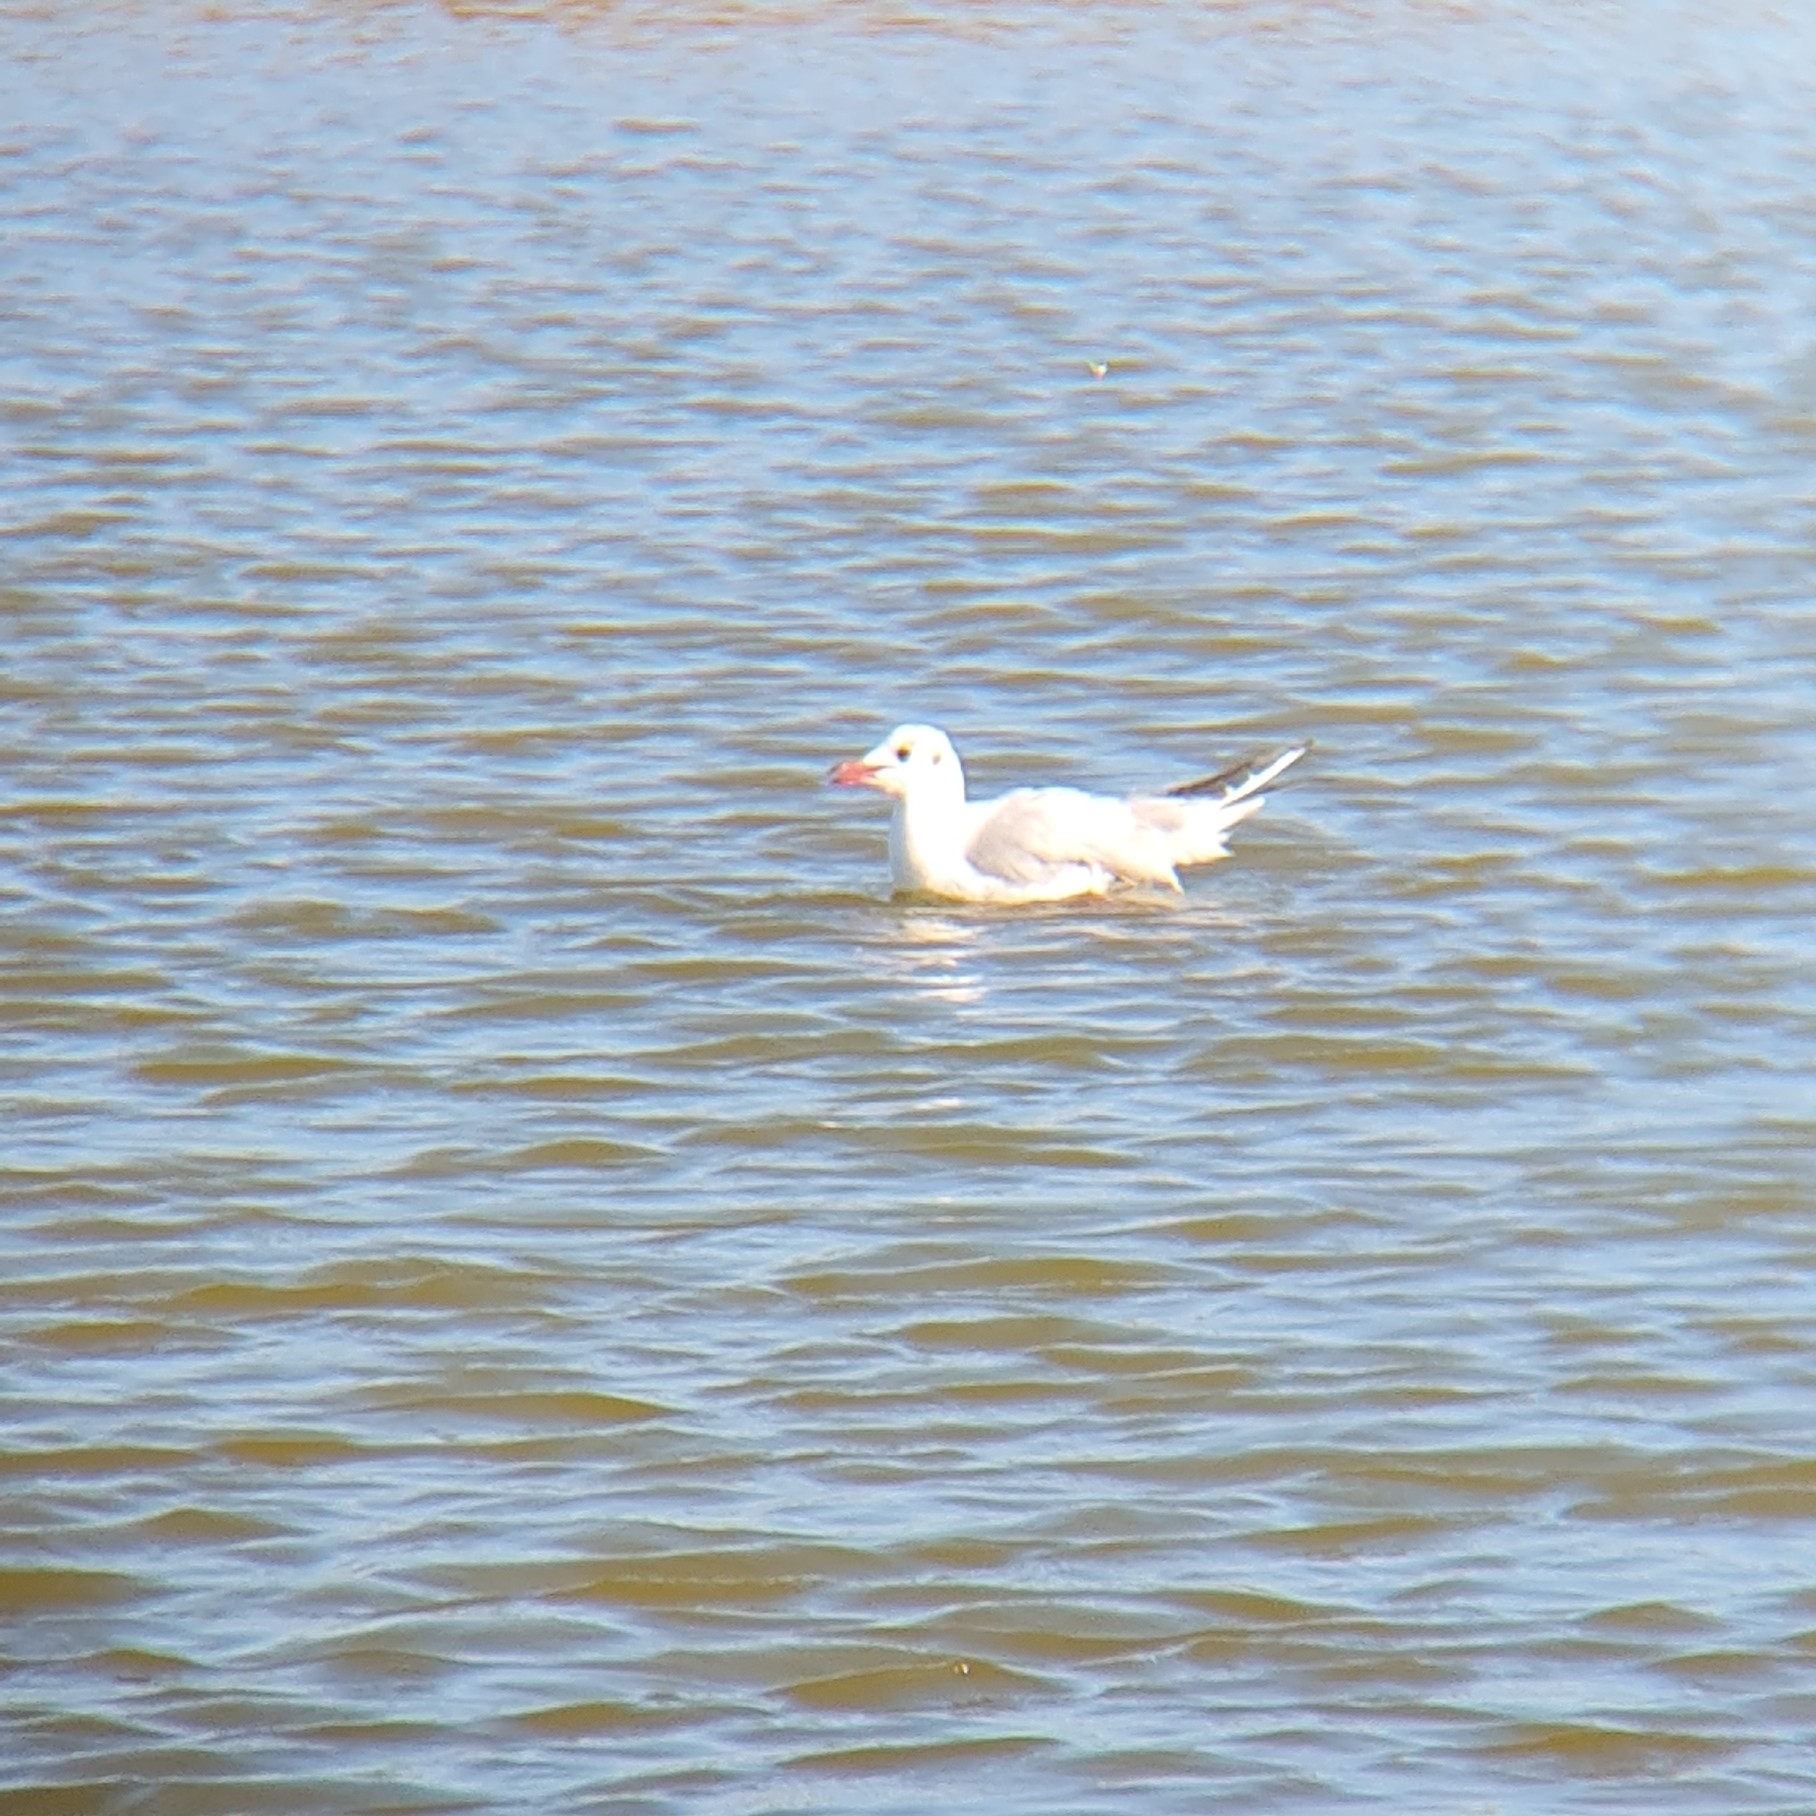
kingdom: Animalia
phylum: Chordata
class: Aves
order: Charadriiformes
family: Laridae
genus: Chroicocephalus
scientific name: Chroicocephalus ridibundus
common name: Black-headed gull
